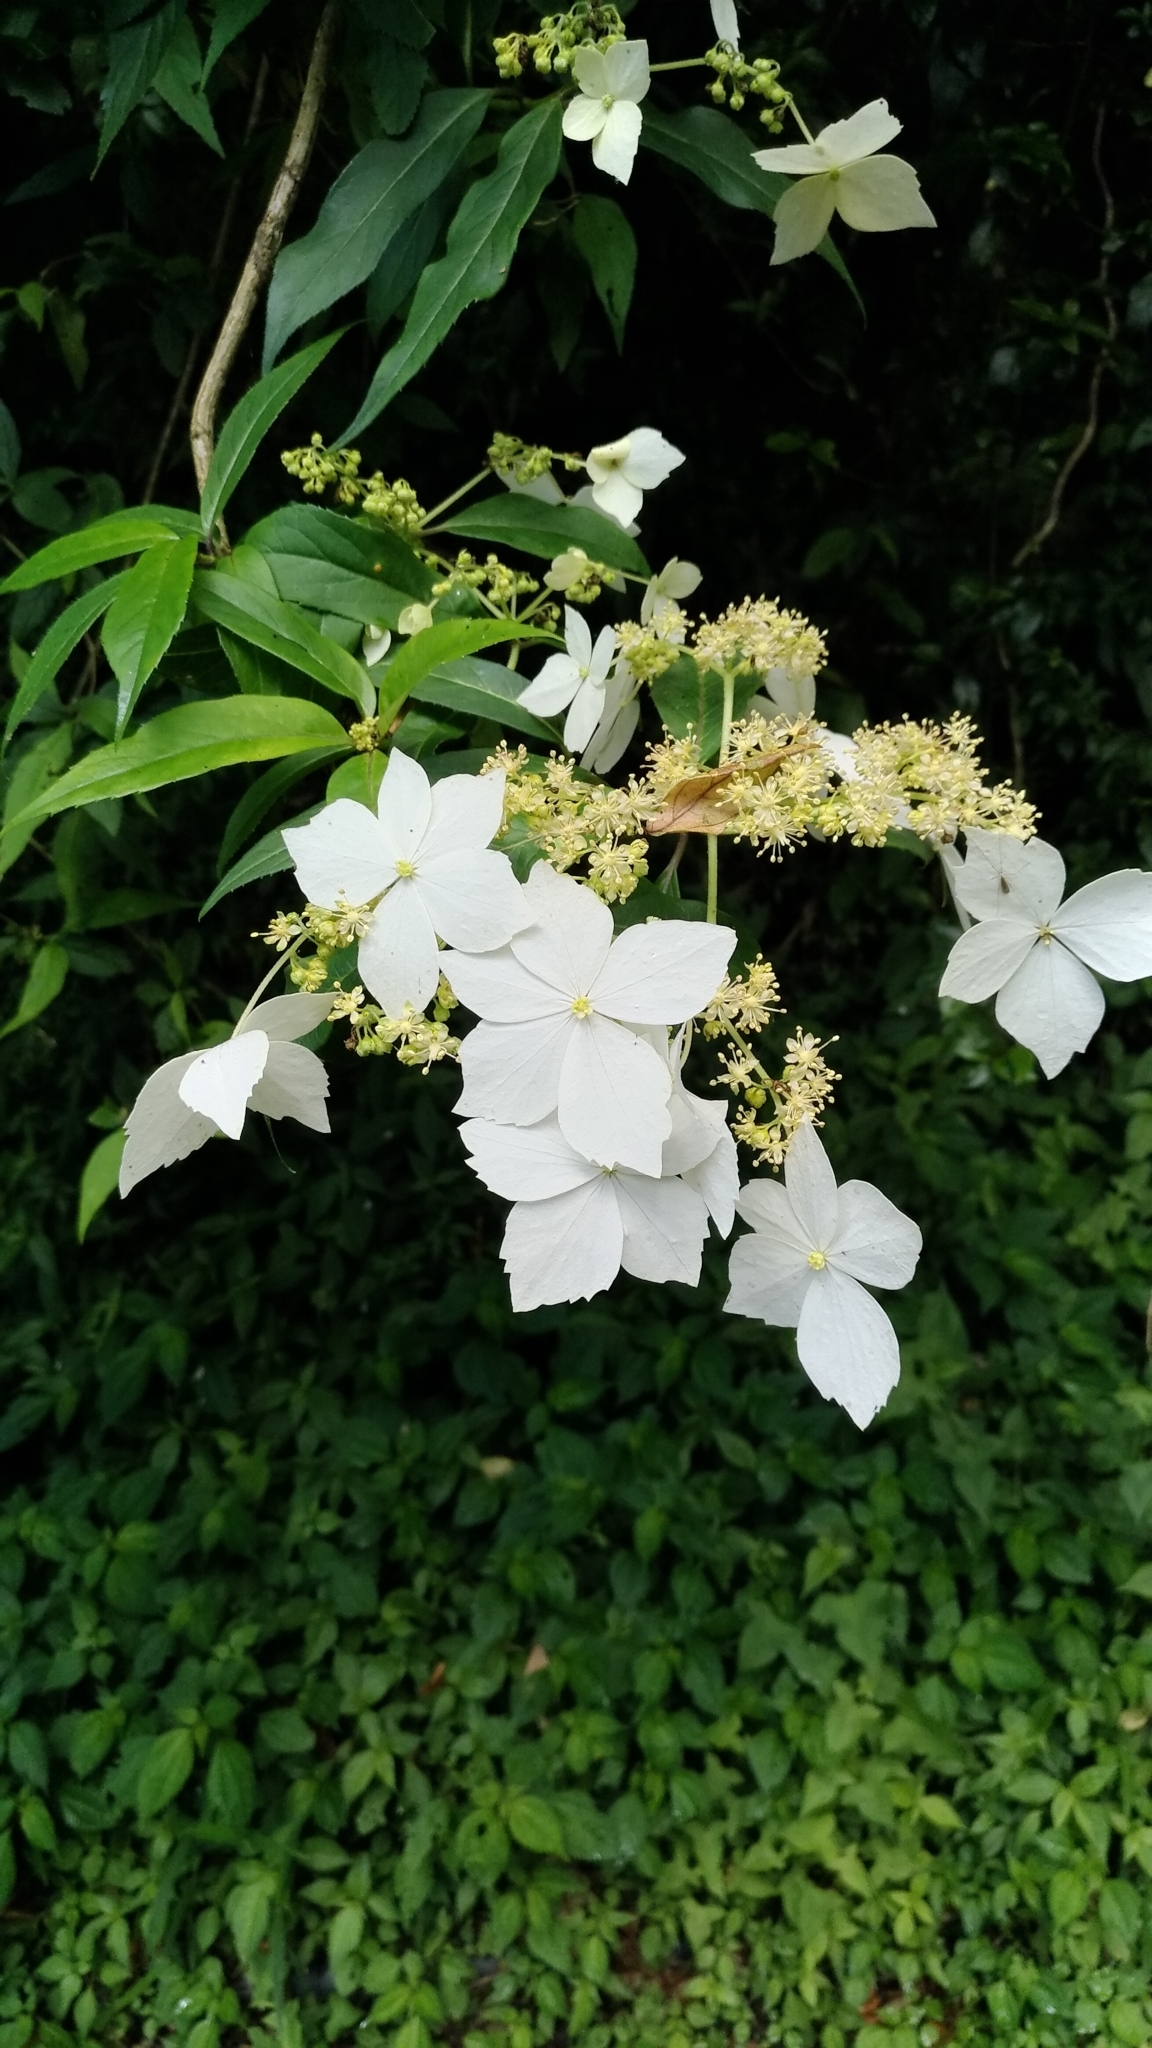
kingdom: Plantae
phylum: Tracheophyta
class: Magnoliopsida
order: Cornales
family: Hydrangeaceae
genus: Hydrangea
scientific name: Hydrangea chinensis
